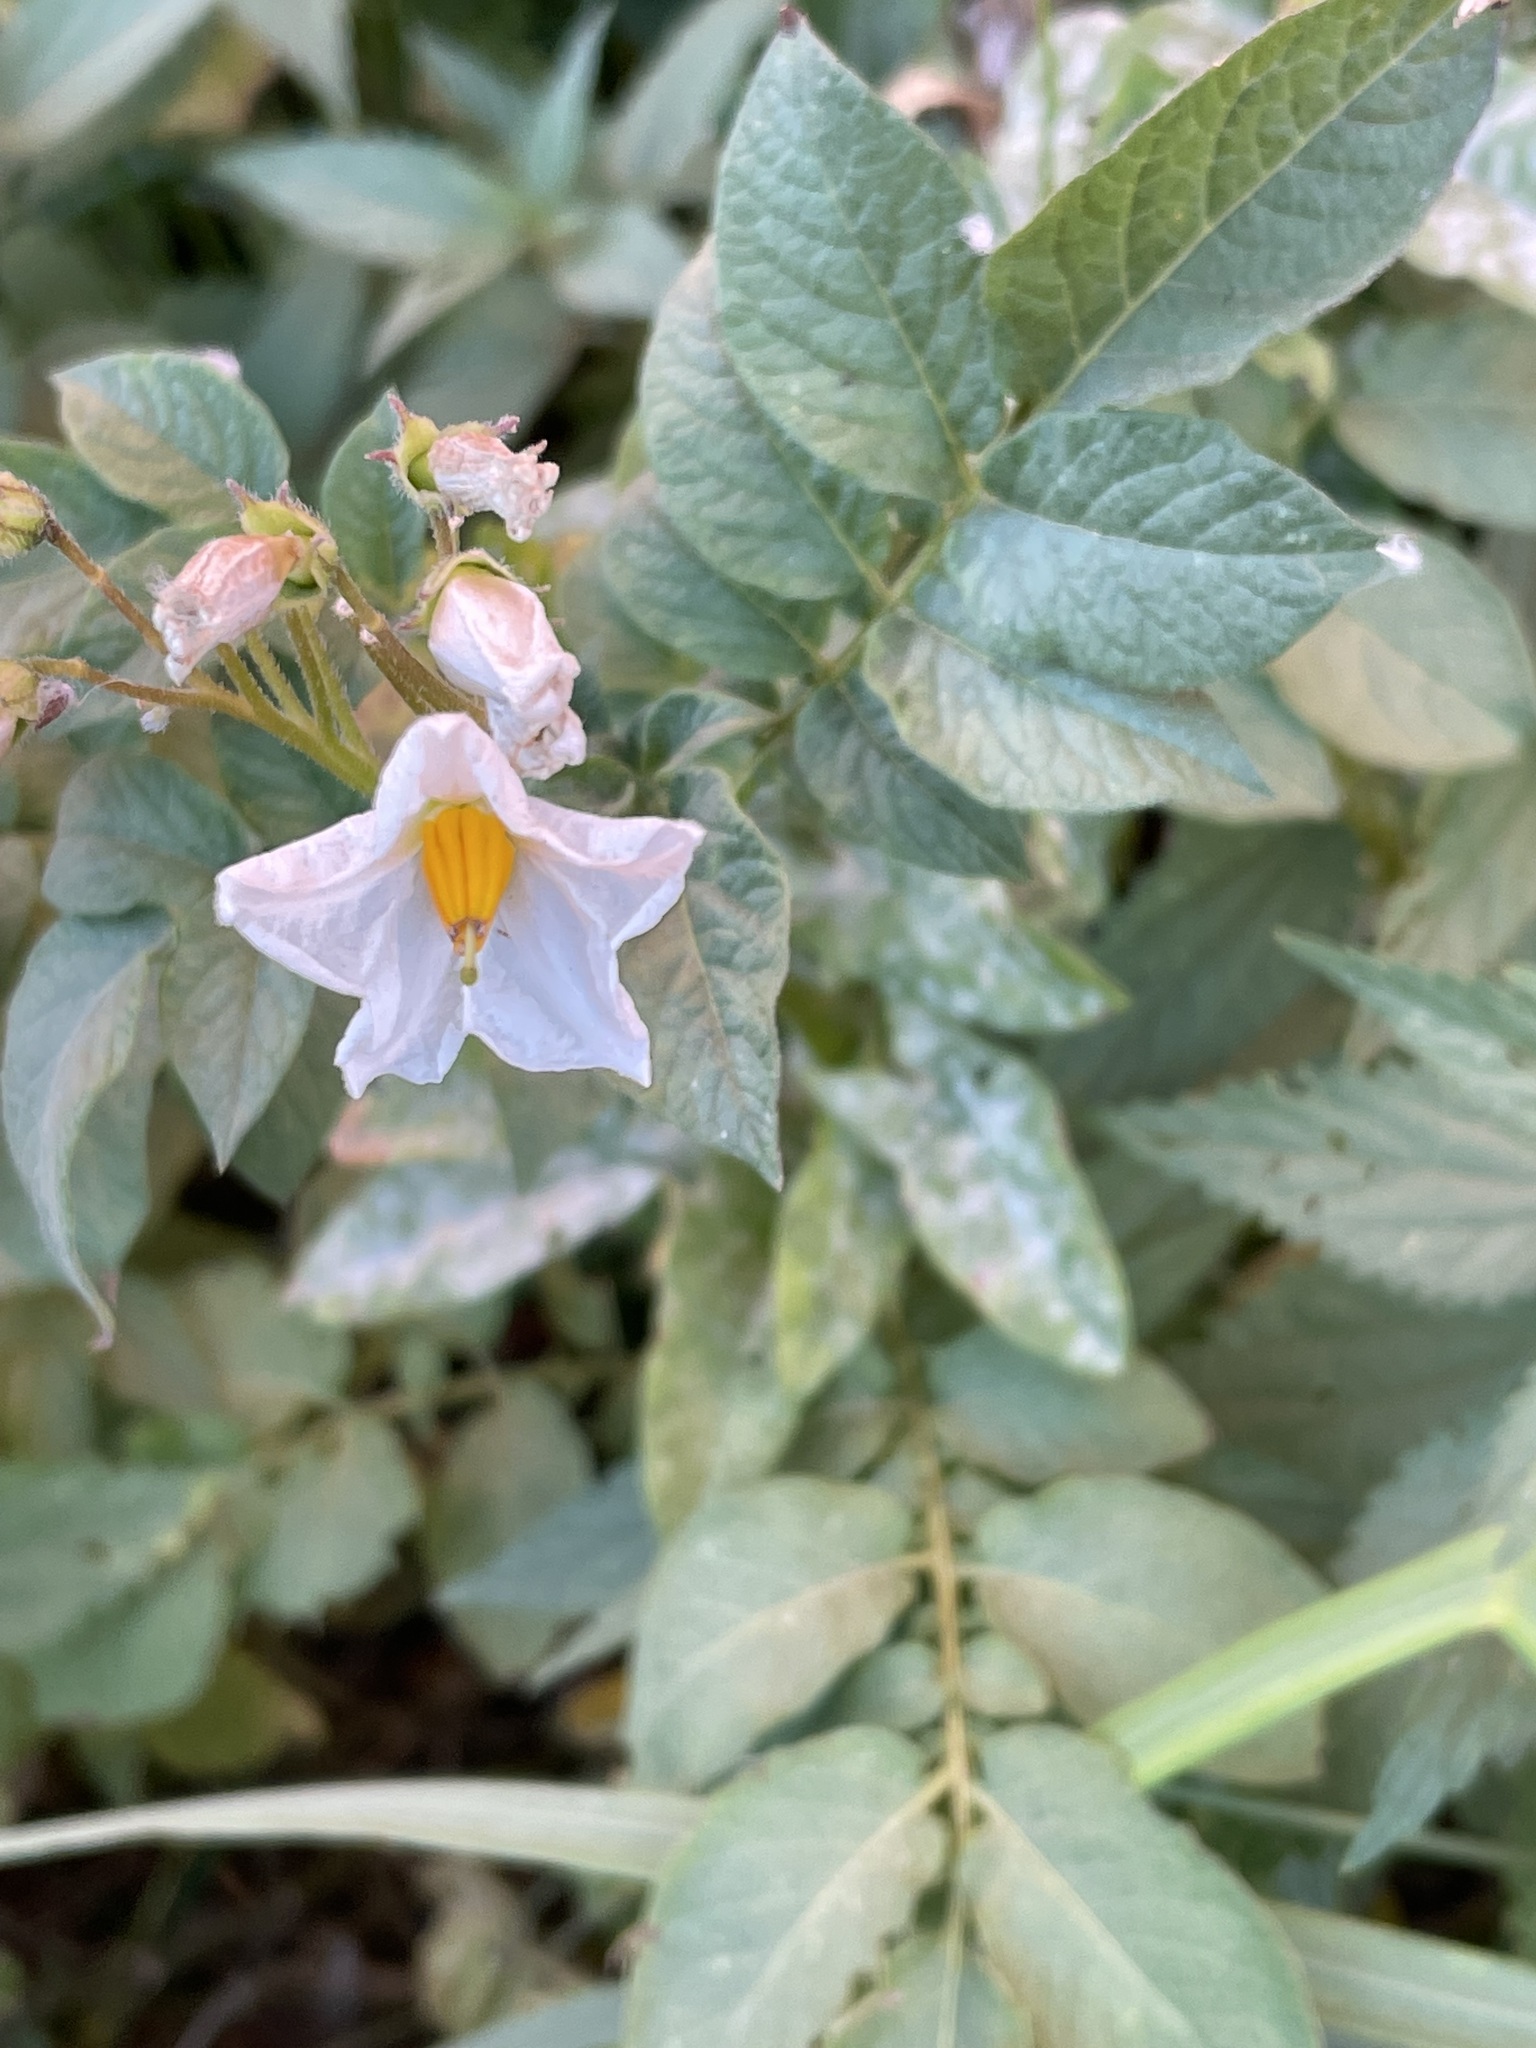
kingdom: Plantae
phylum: Tracheophyta
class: Magnoliopsida
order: Solanales
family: Solanaceae
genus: Solanum
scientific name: Solanum tuberosum
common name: Potato
